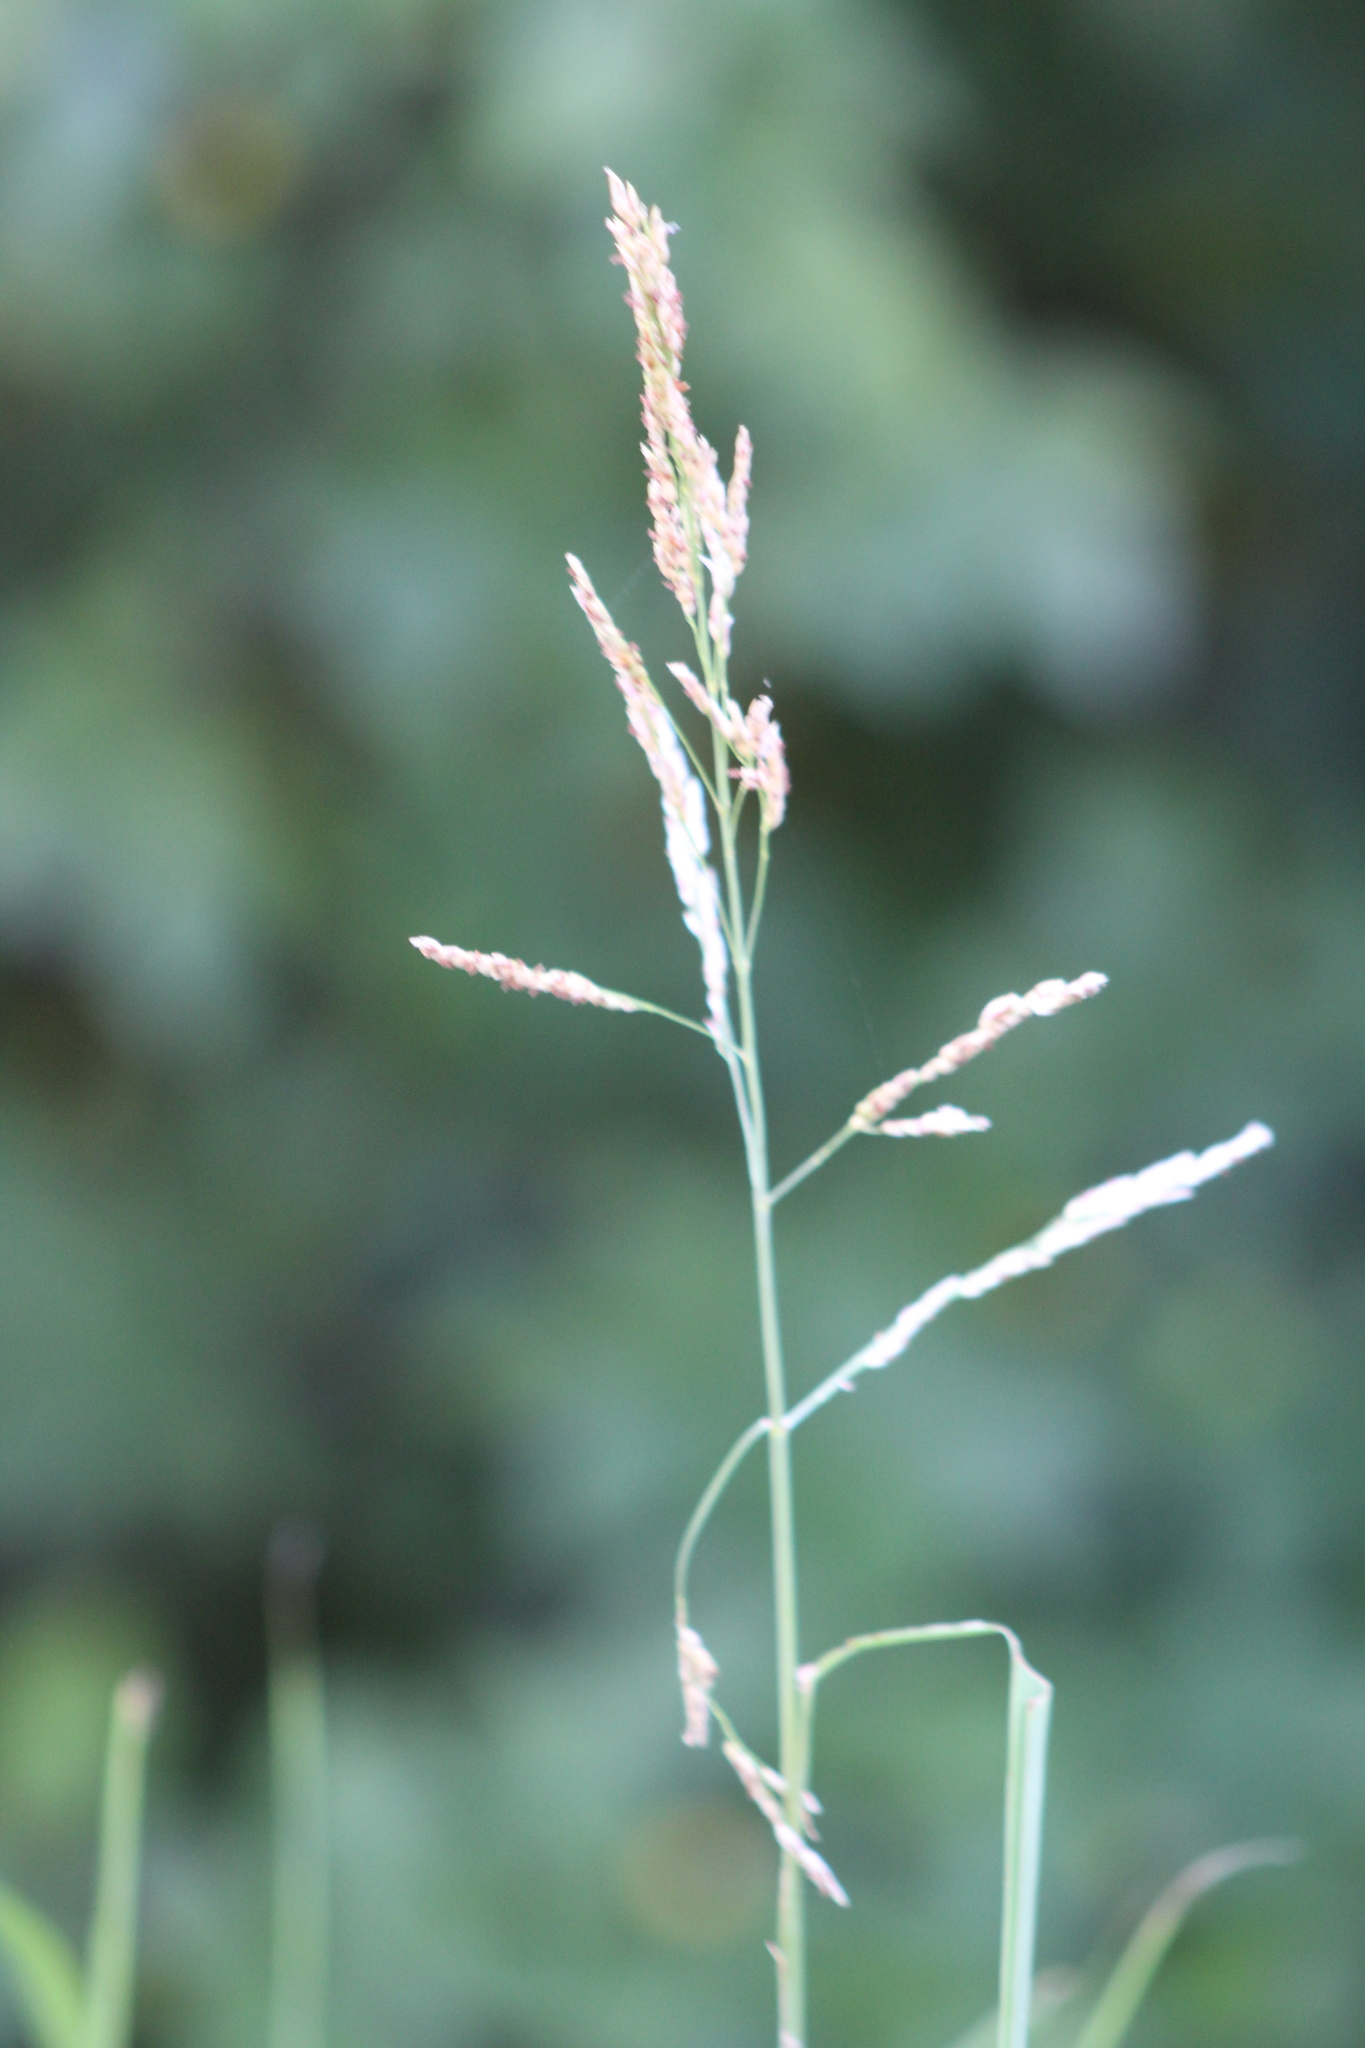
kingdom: Plantae
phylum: Tracheophyta
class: Liliopsida
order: Poales
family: Poaceae
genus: Sorghum
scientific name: Sorghum halepense
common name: Johnson-grass
